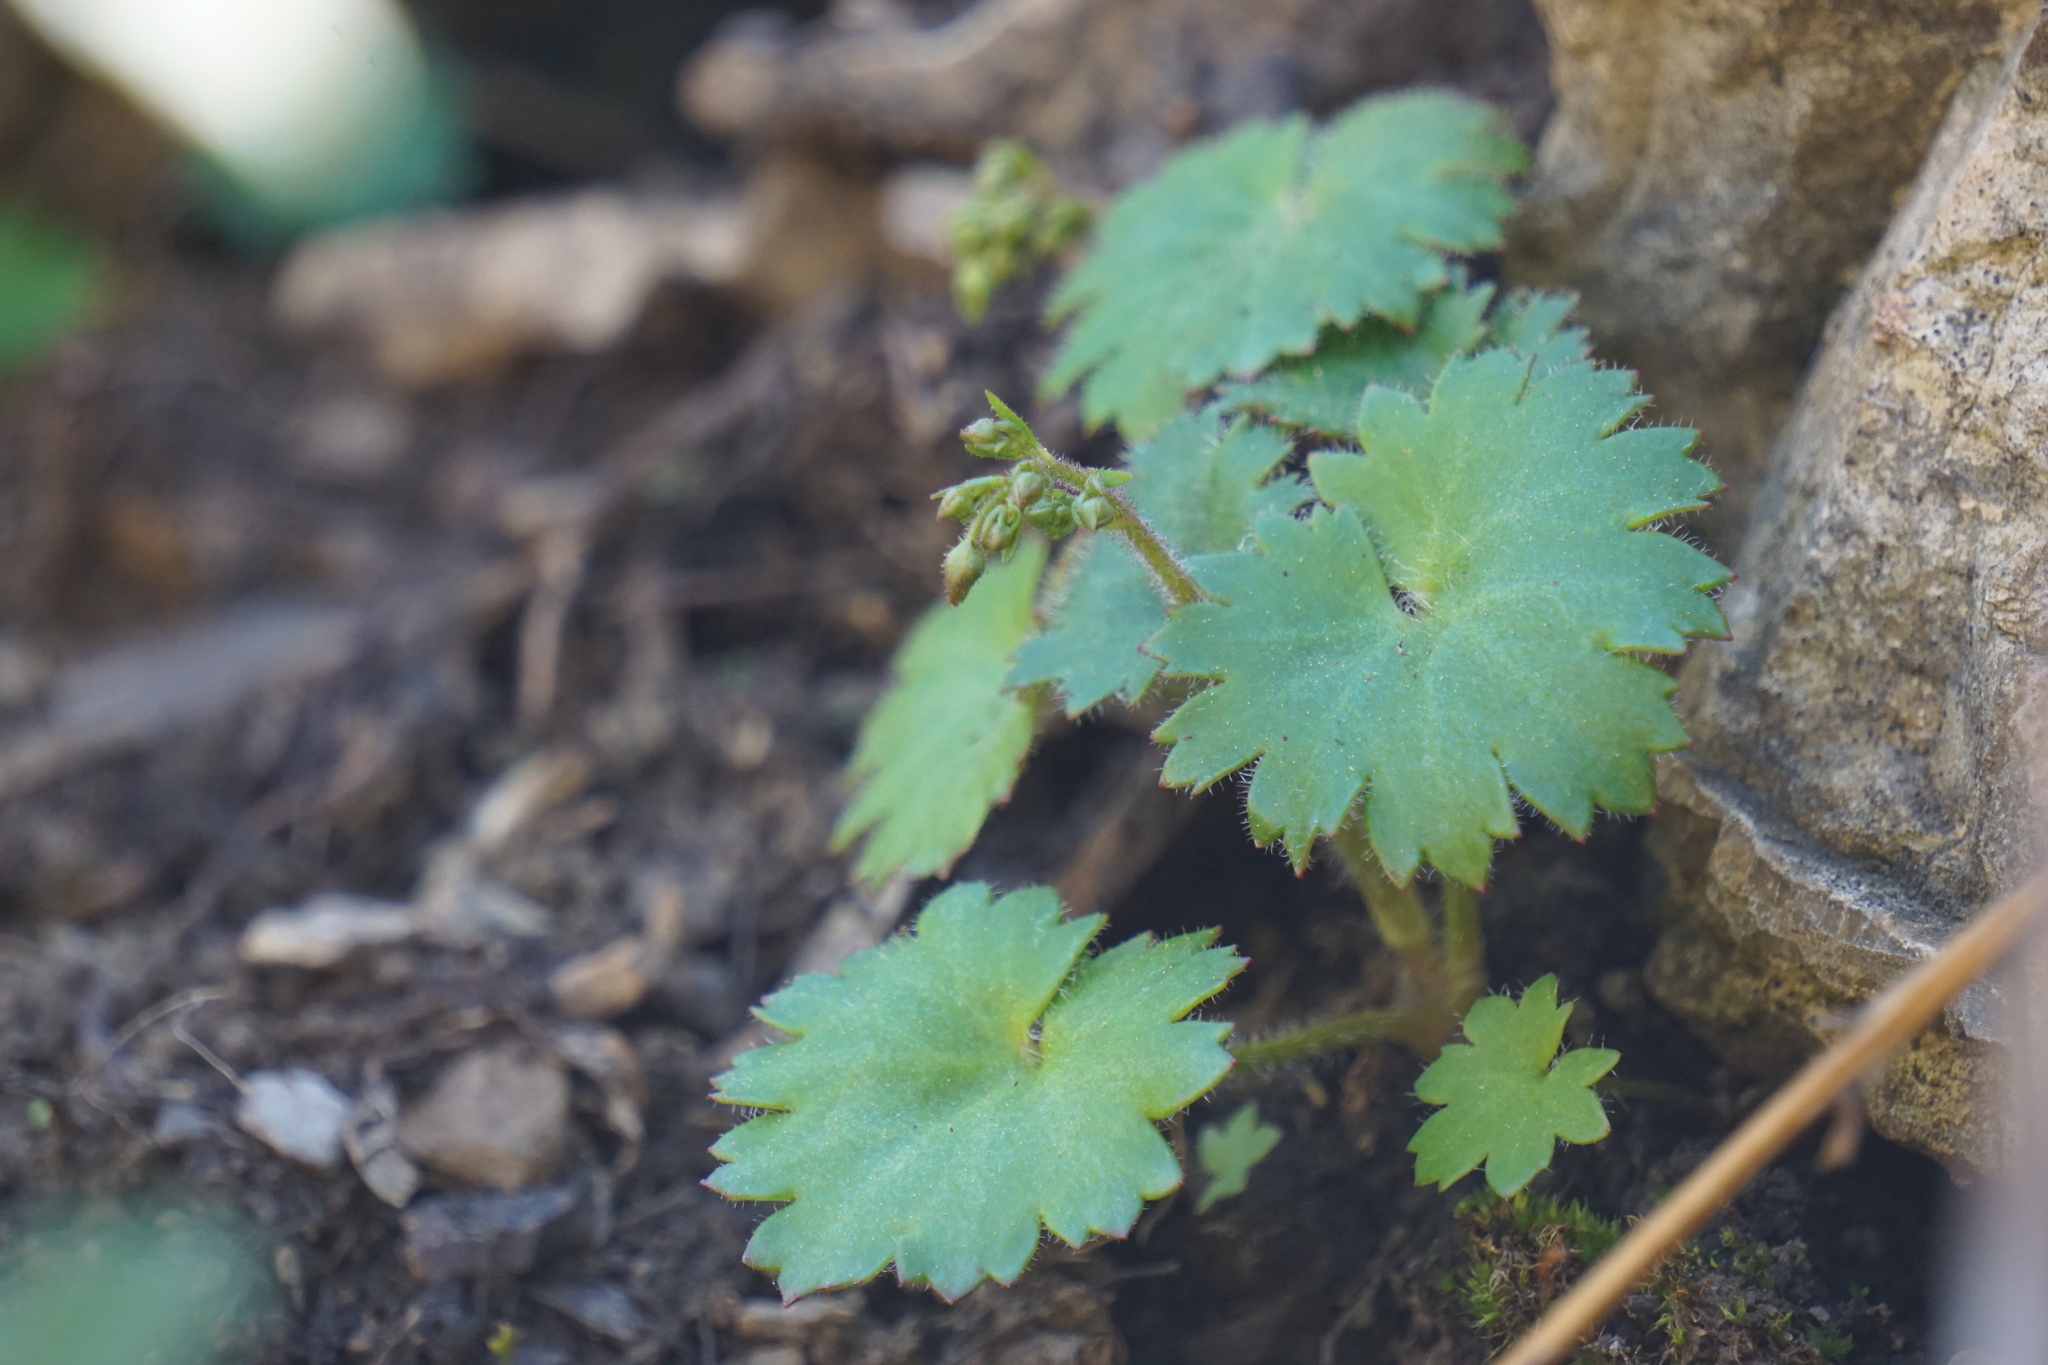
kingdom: Plantae
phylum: Tracheophyta
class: Magnoliopsida
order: Saxifragales
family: Saxifragaceae
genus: Micranthes
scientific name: Micranthes mertensiana
